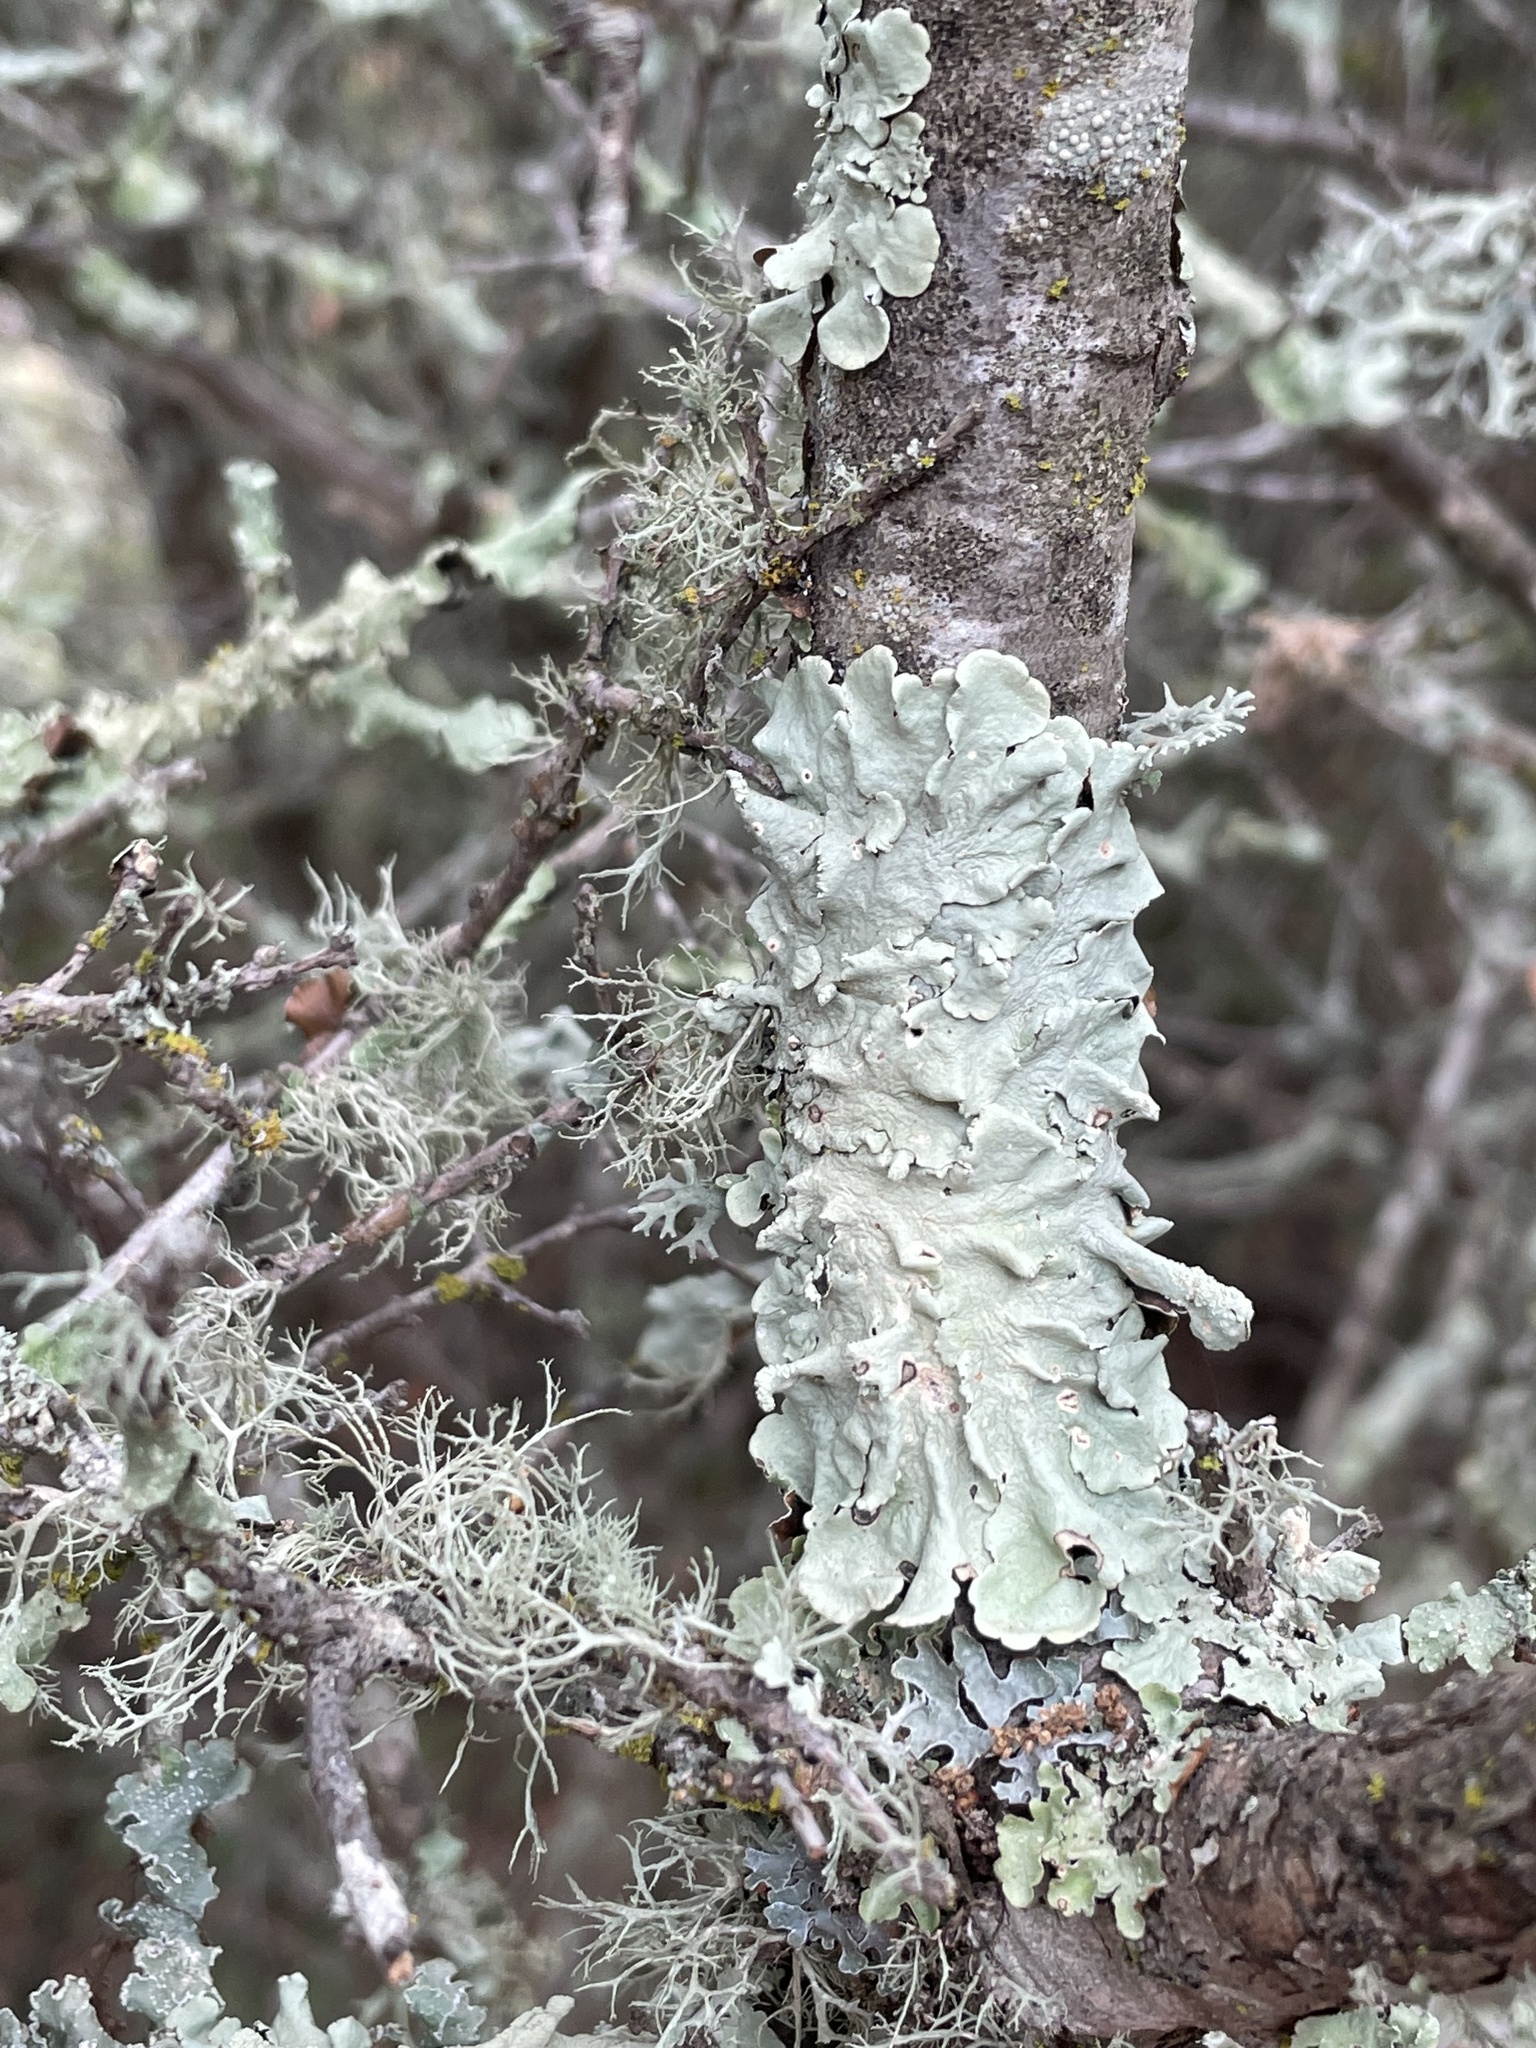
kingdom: Fungi
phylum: Ascomycota
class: Lecanoromycetes
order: Lecanorales
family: Parmeliaceae
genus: Flavoparmelia
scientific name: Flavoparmelia caperata
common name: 40-mile per hour lichen
